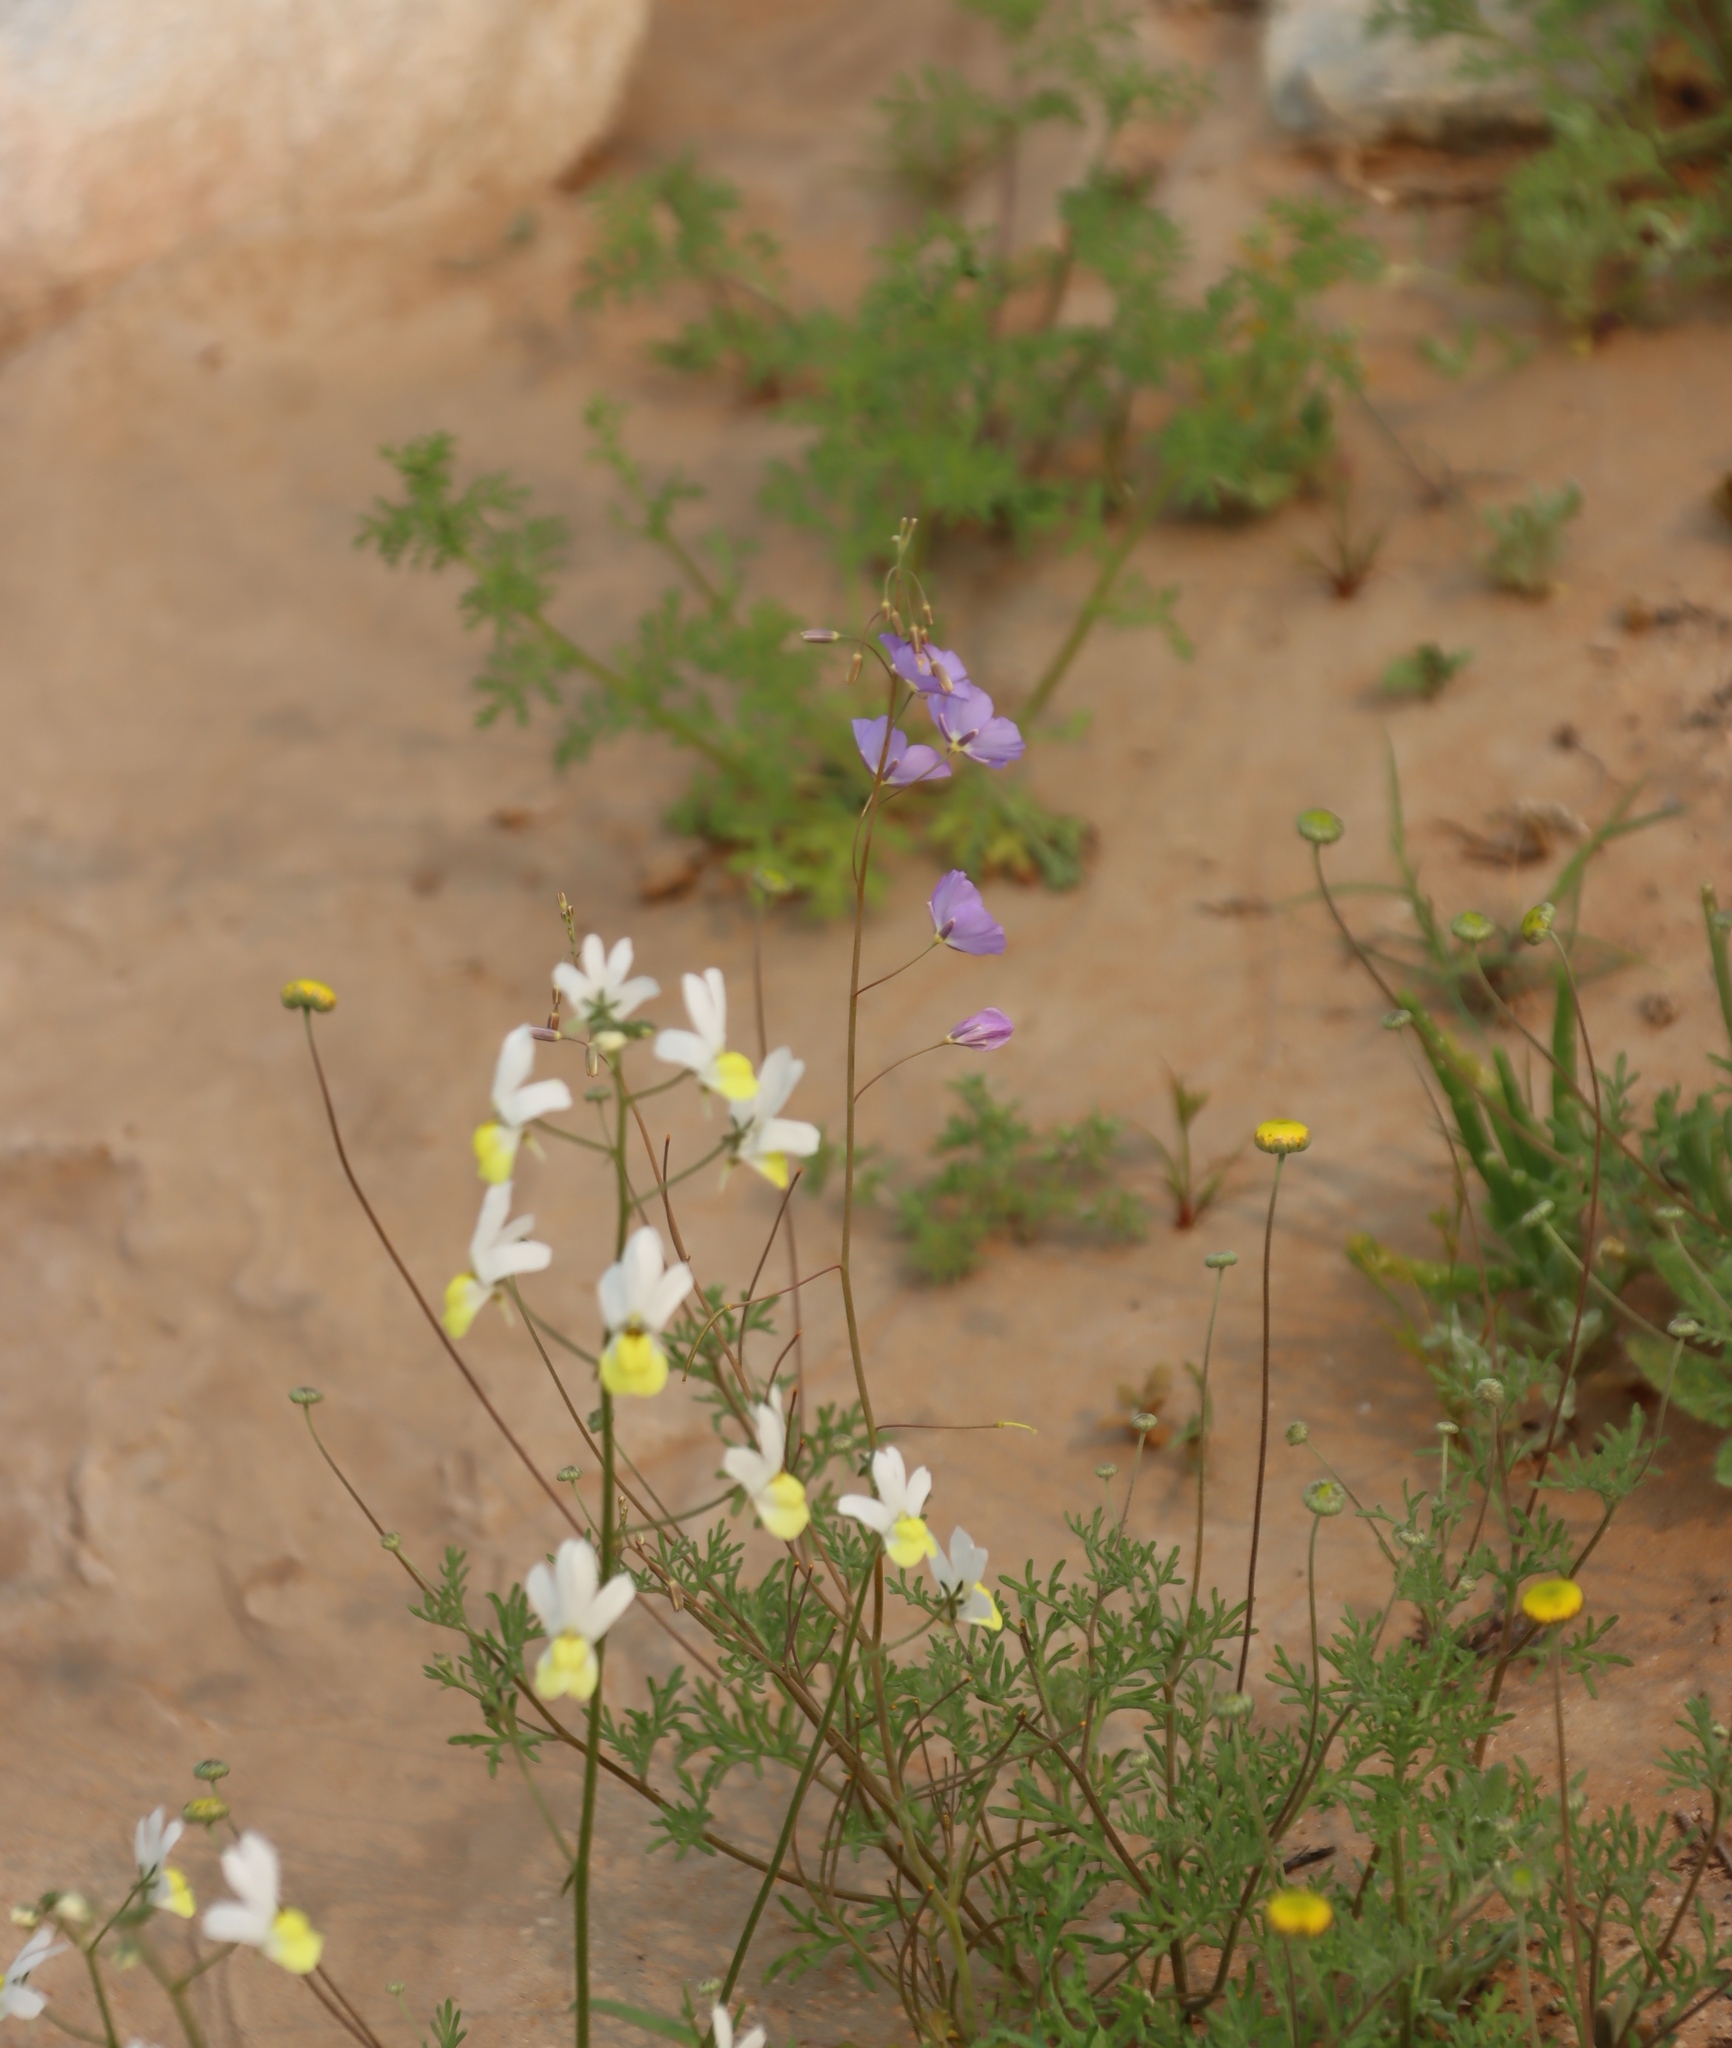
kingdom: Plantae
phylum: Tracheophyta
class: Magnoliopsida
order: Brassicales
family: Brassicaceae
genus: Heliophila
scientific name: Heliophila trifurca
